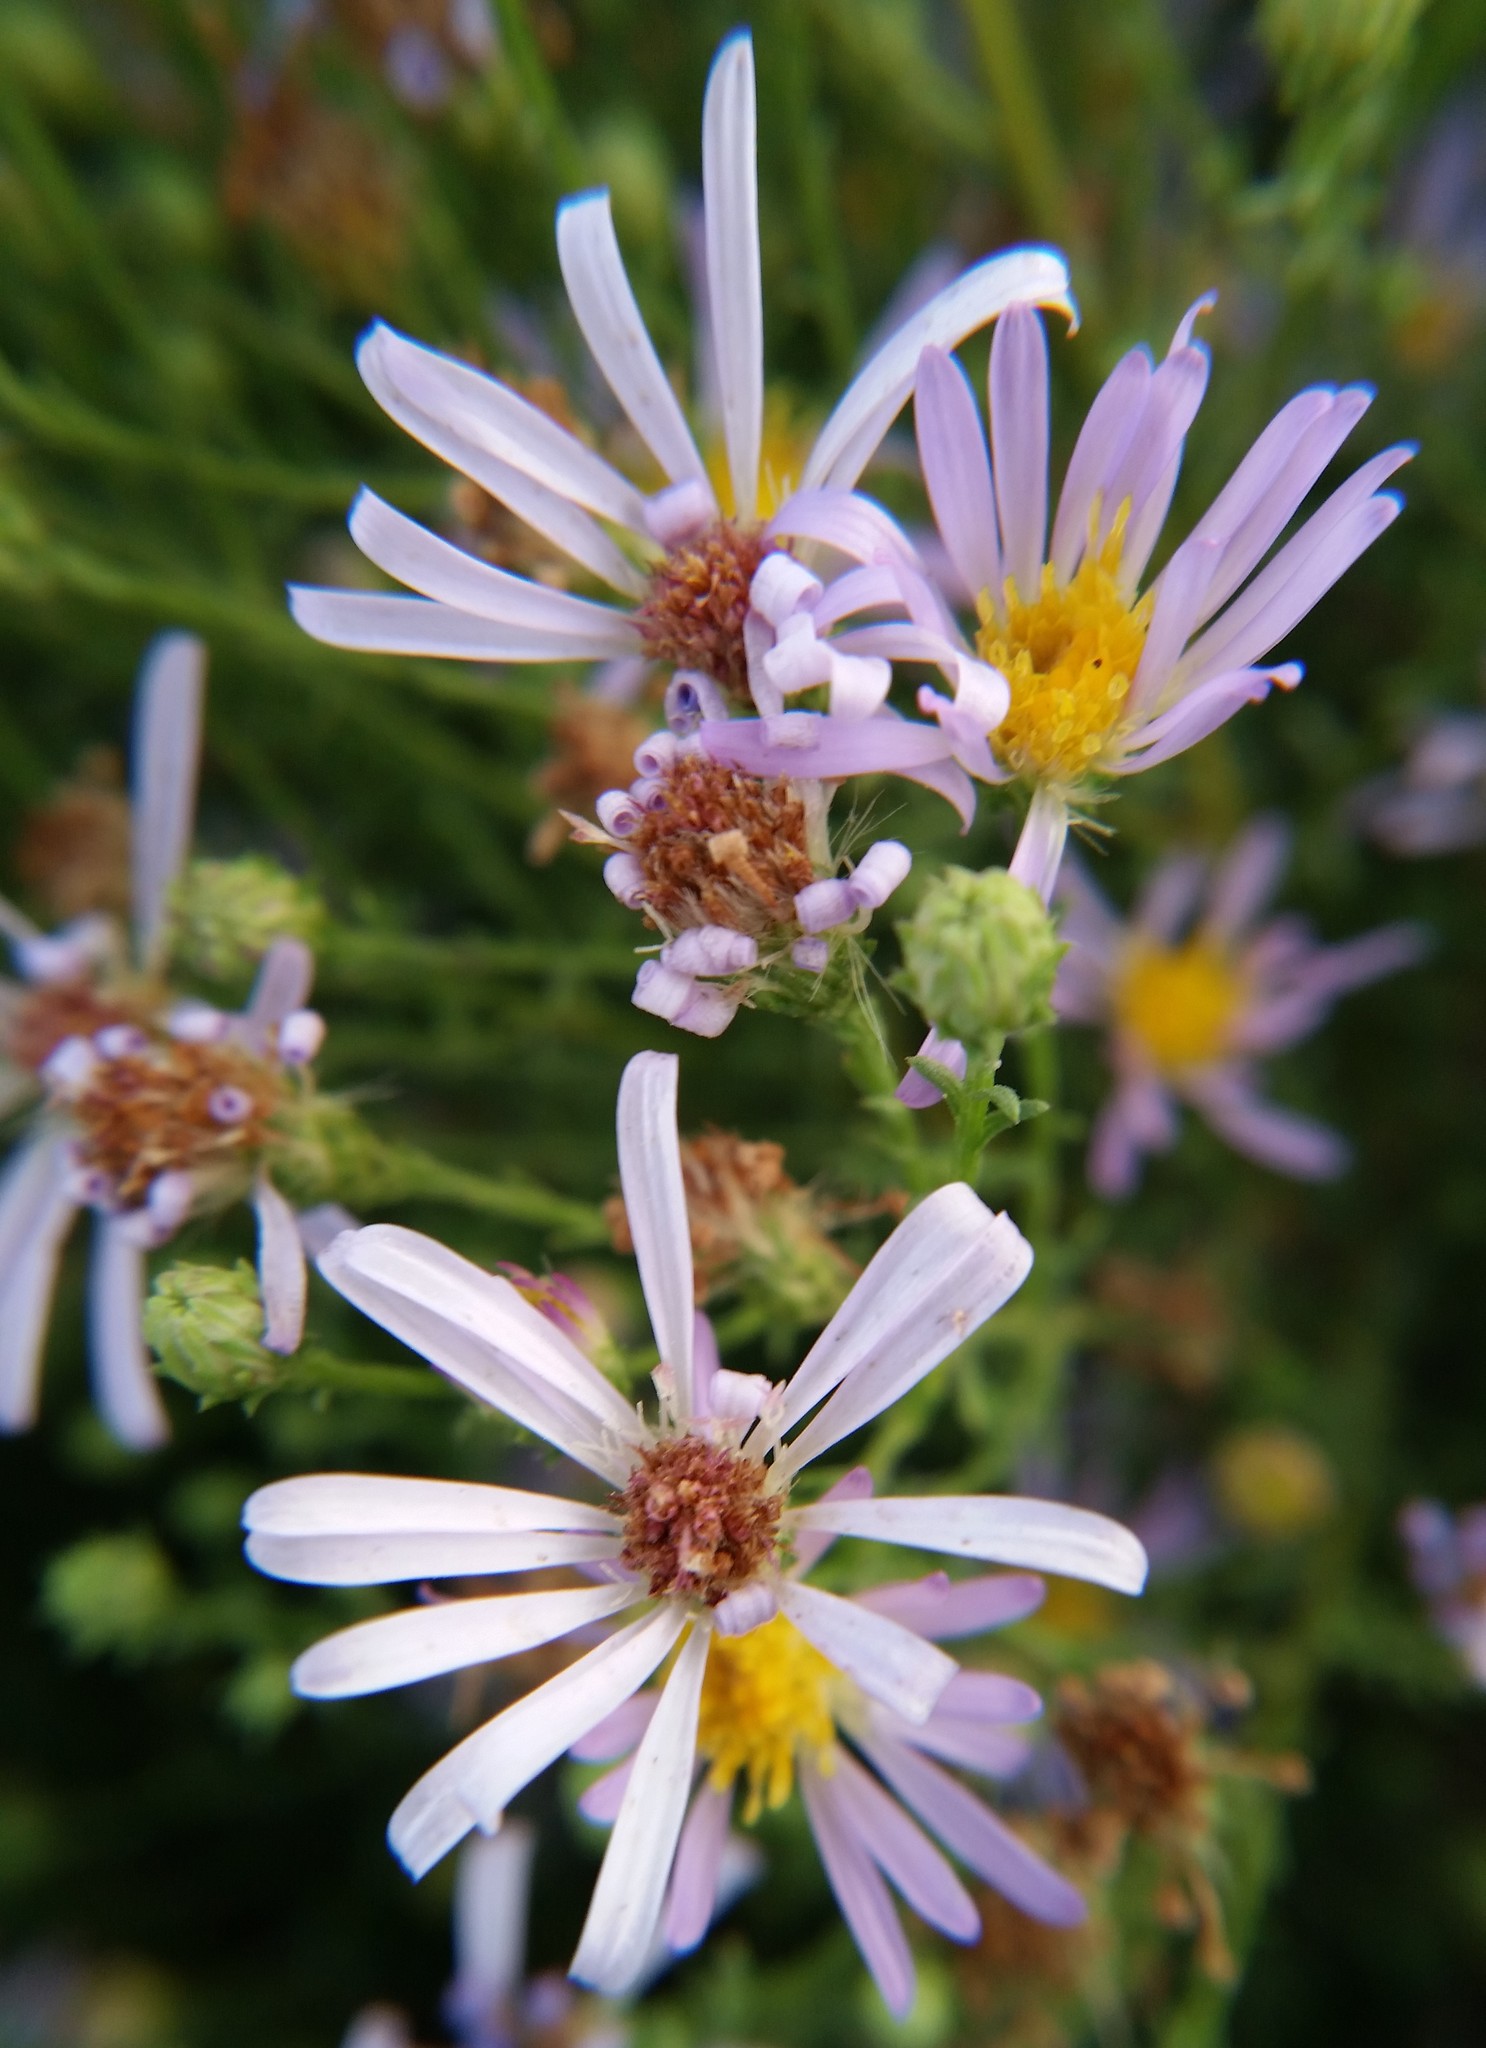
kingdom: Plantae
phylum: Tracheophyta
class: Magnoliopsida
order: Asterales
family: Asteraceae
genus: Symphyotrichum
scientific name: Symphyotrichum ascendens
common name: Intermountain aster
